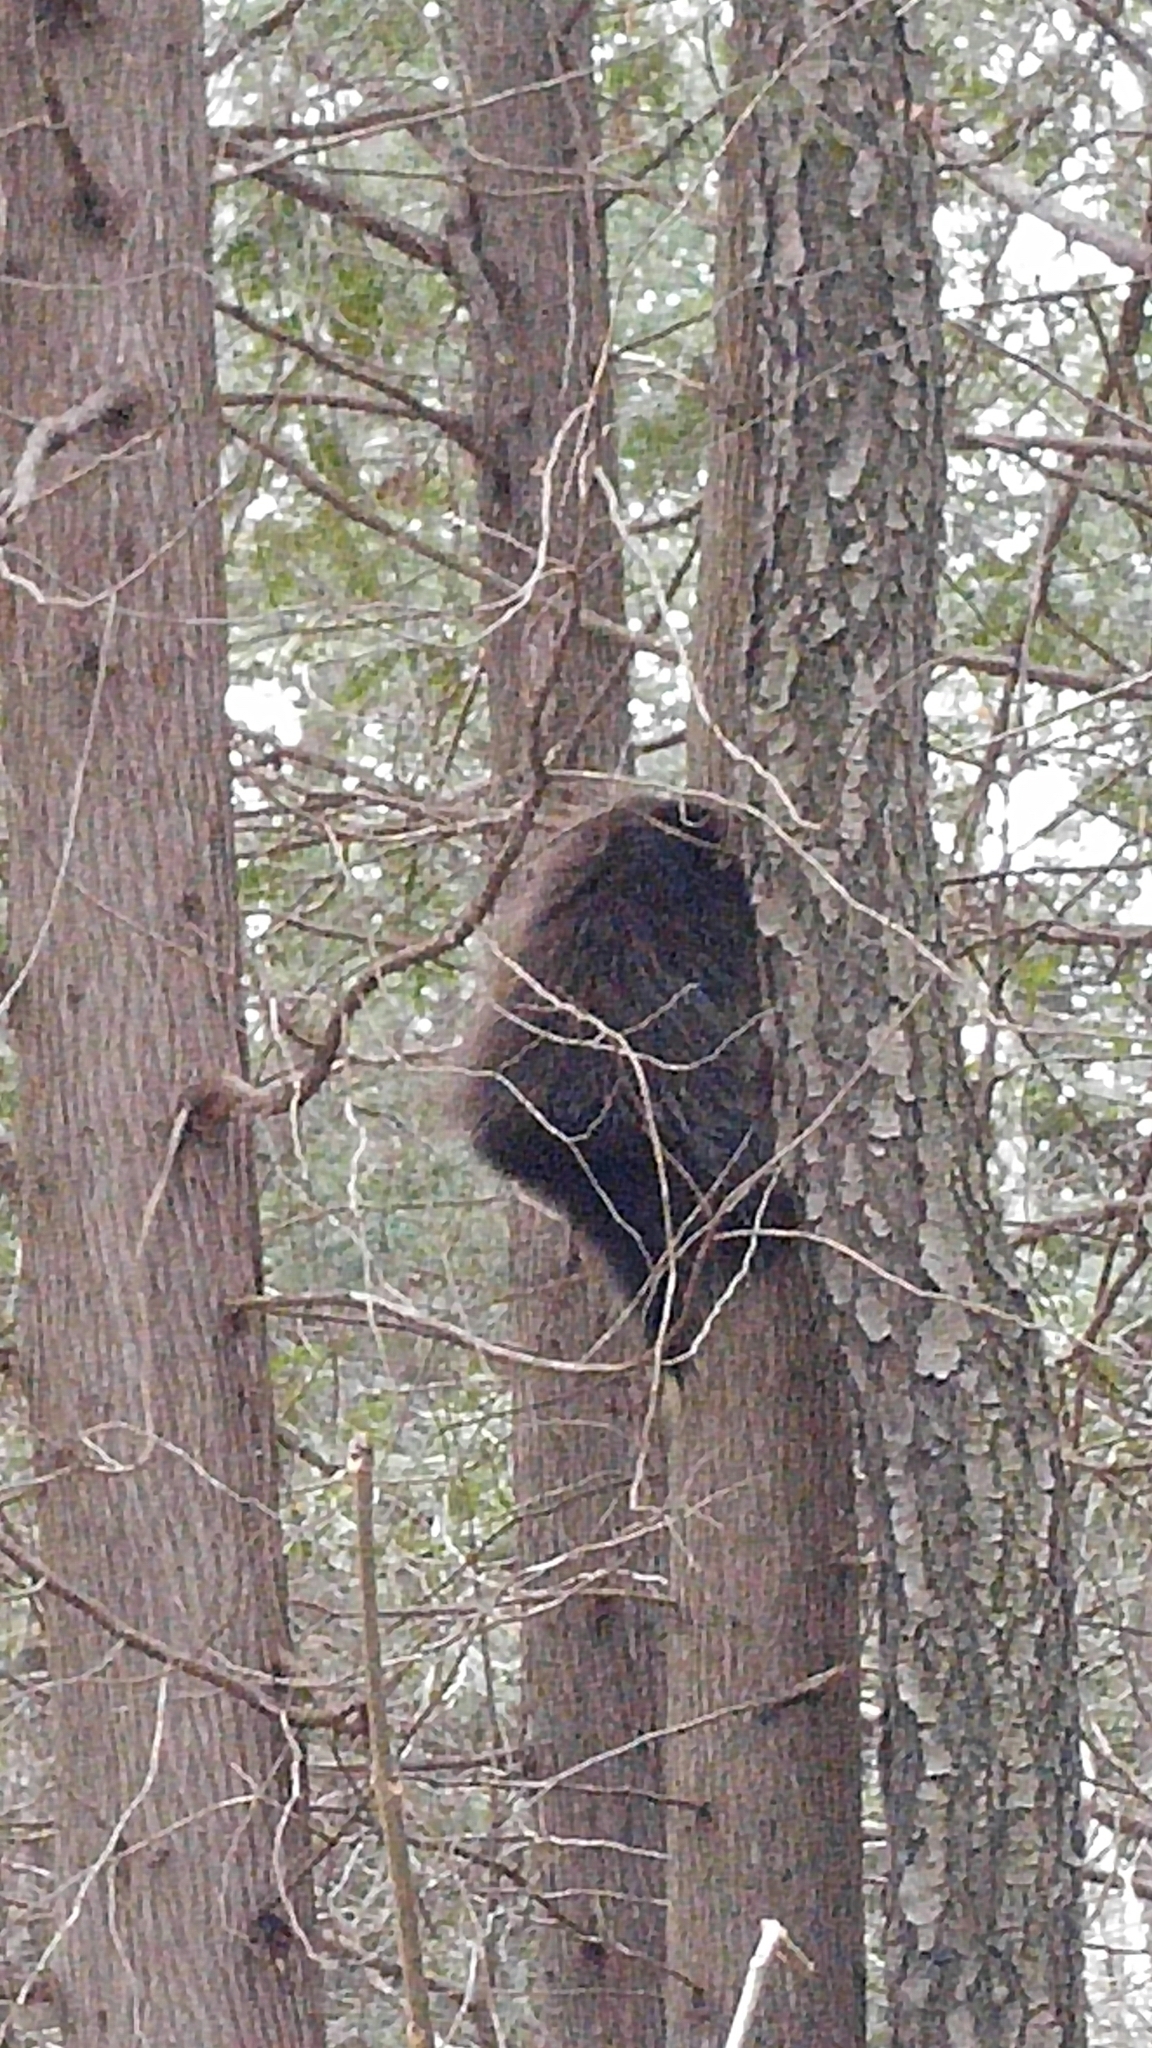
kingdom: Animalia
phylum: Chordata
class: Mammalia
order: Rodentia
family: Erethizontidae
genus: Erethizon
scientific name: Erethizon dorsatus
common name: North american porcupine
